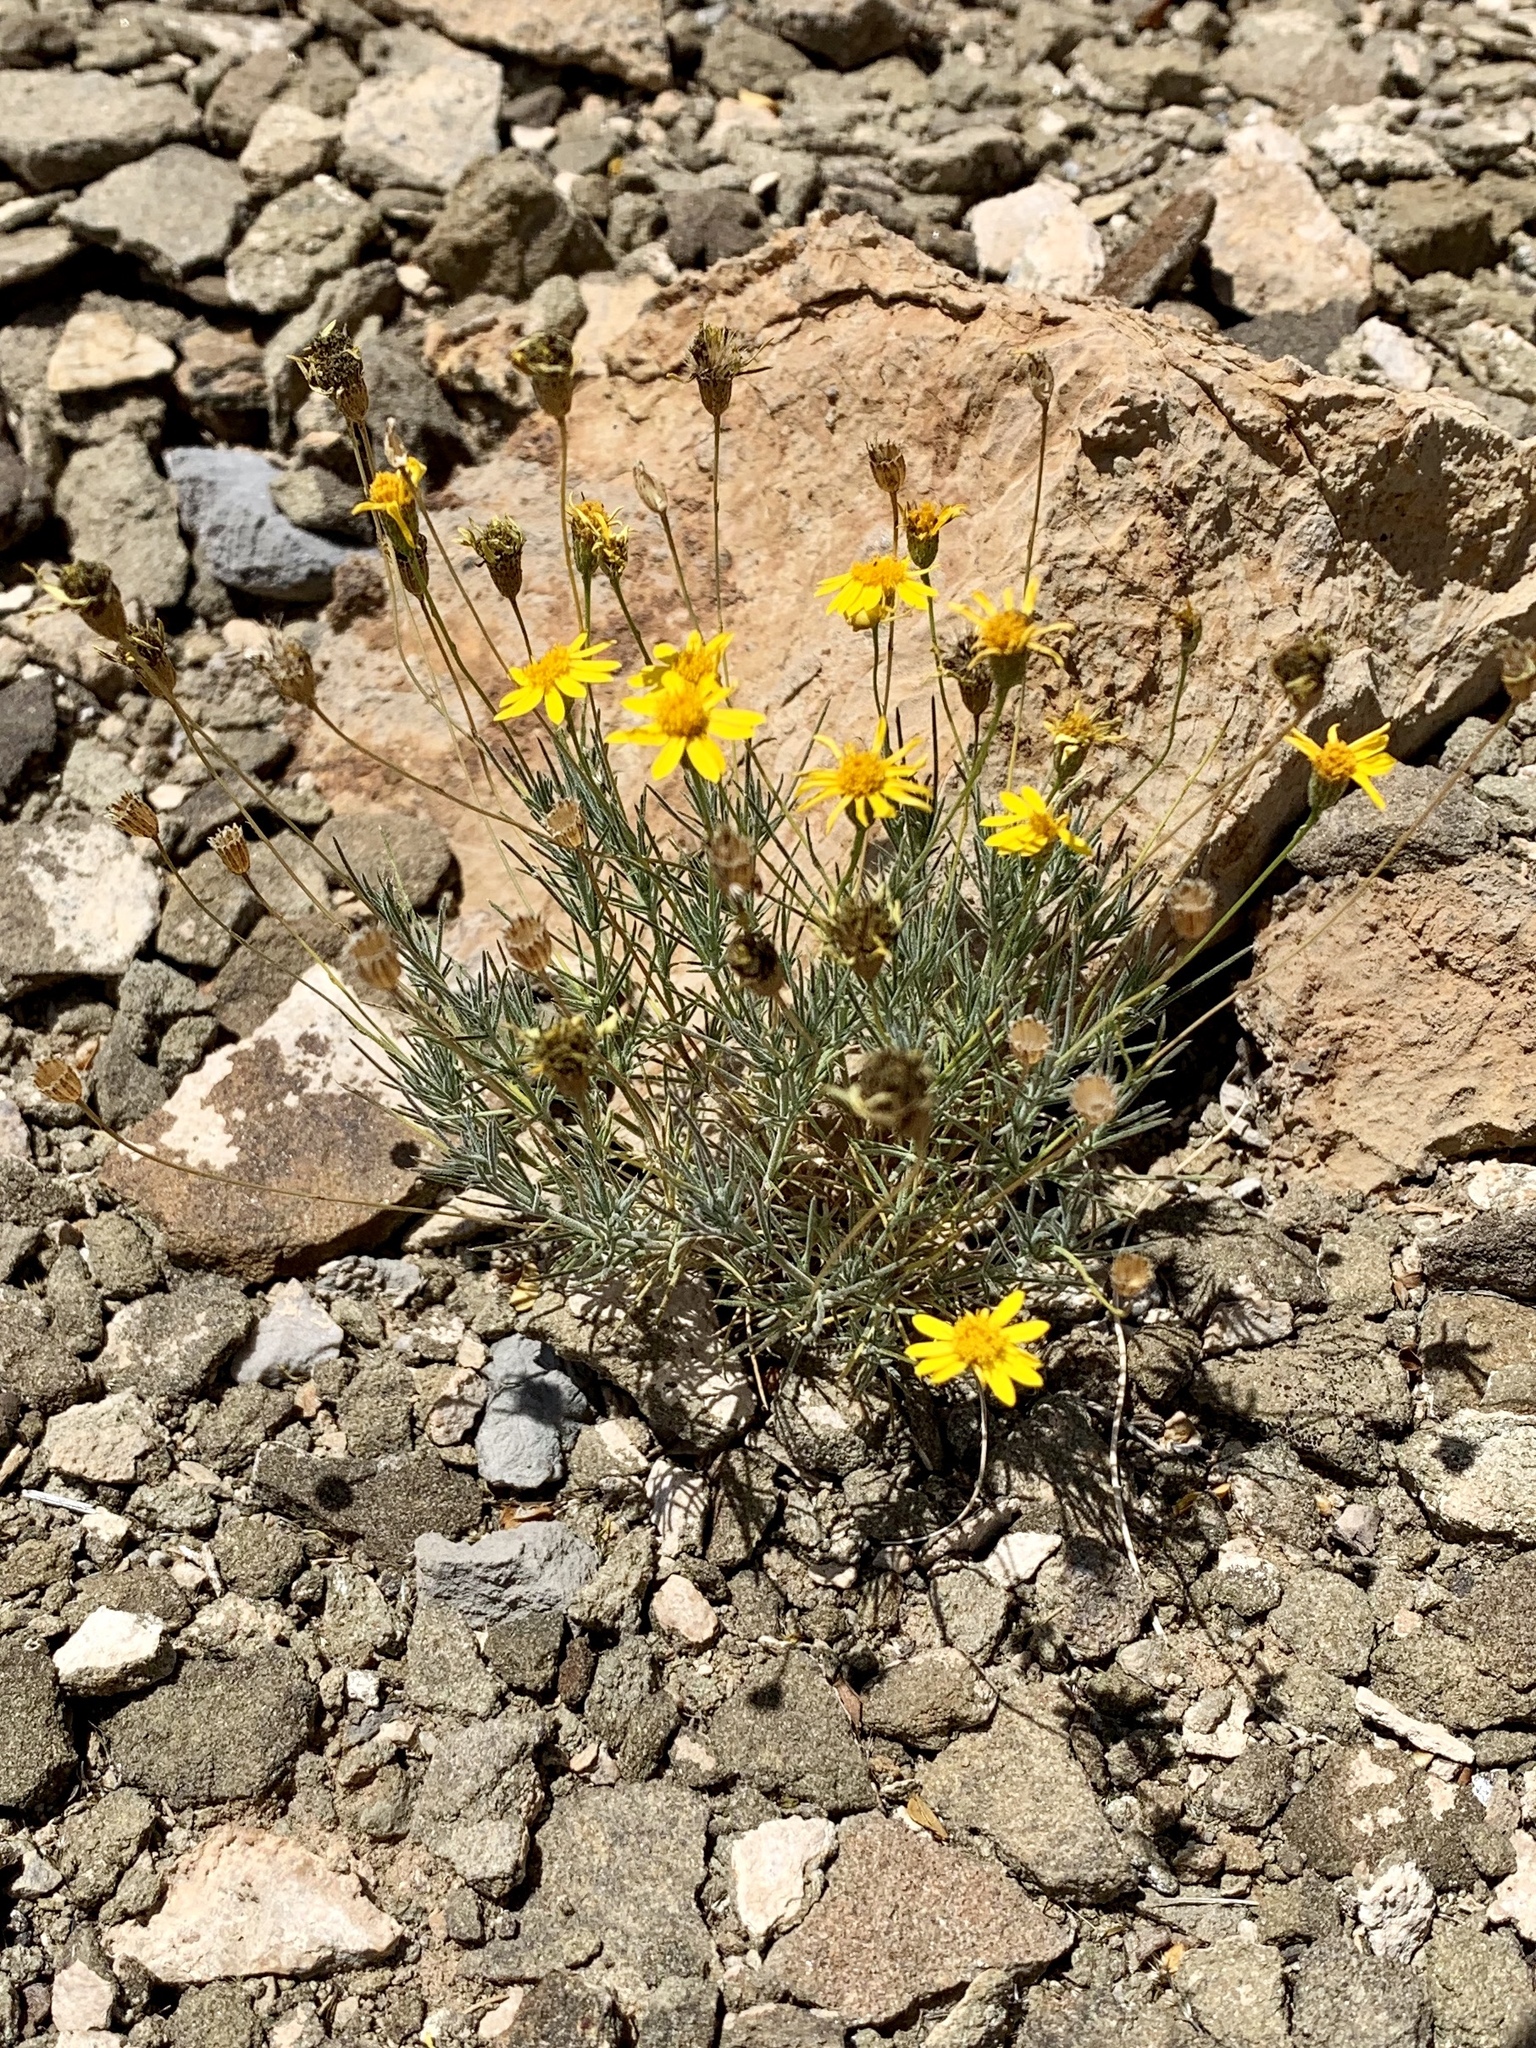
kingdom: Plantae
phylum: Tracheophyta
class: Magnoliopsida
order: Asterales
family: Asteraceae
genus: Thymophylla
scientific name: Thymophylla pentachaeta
